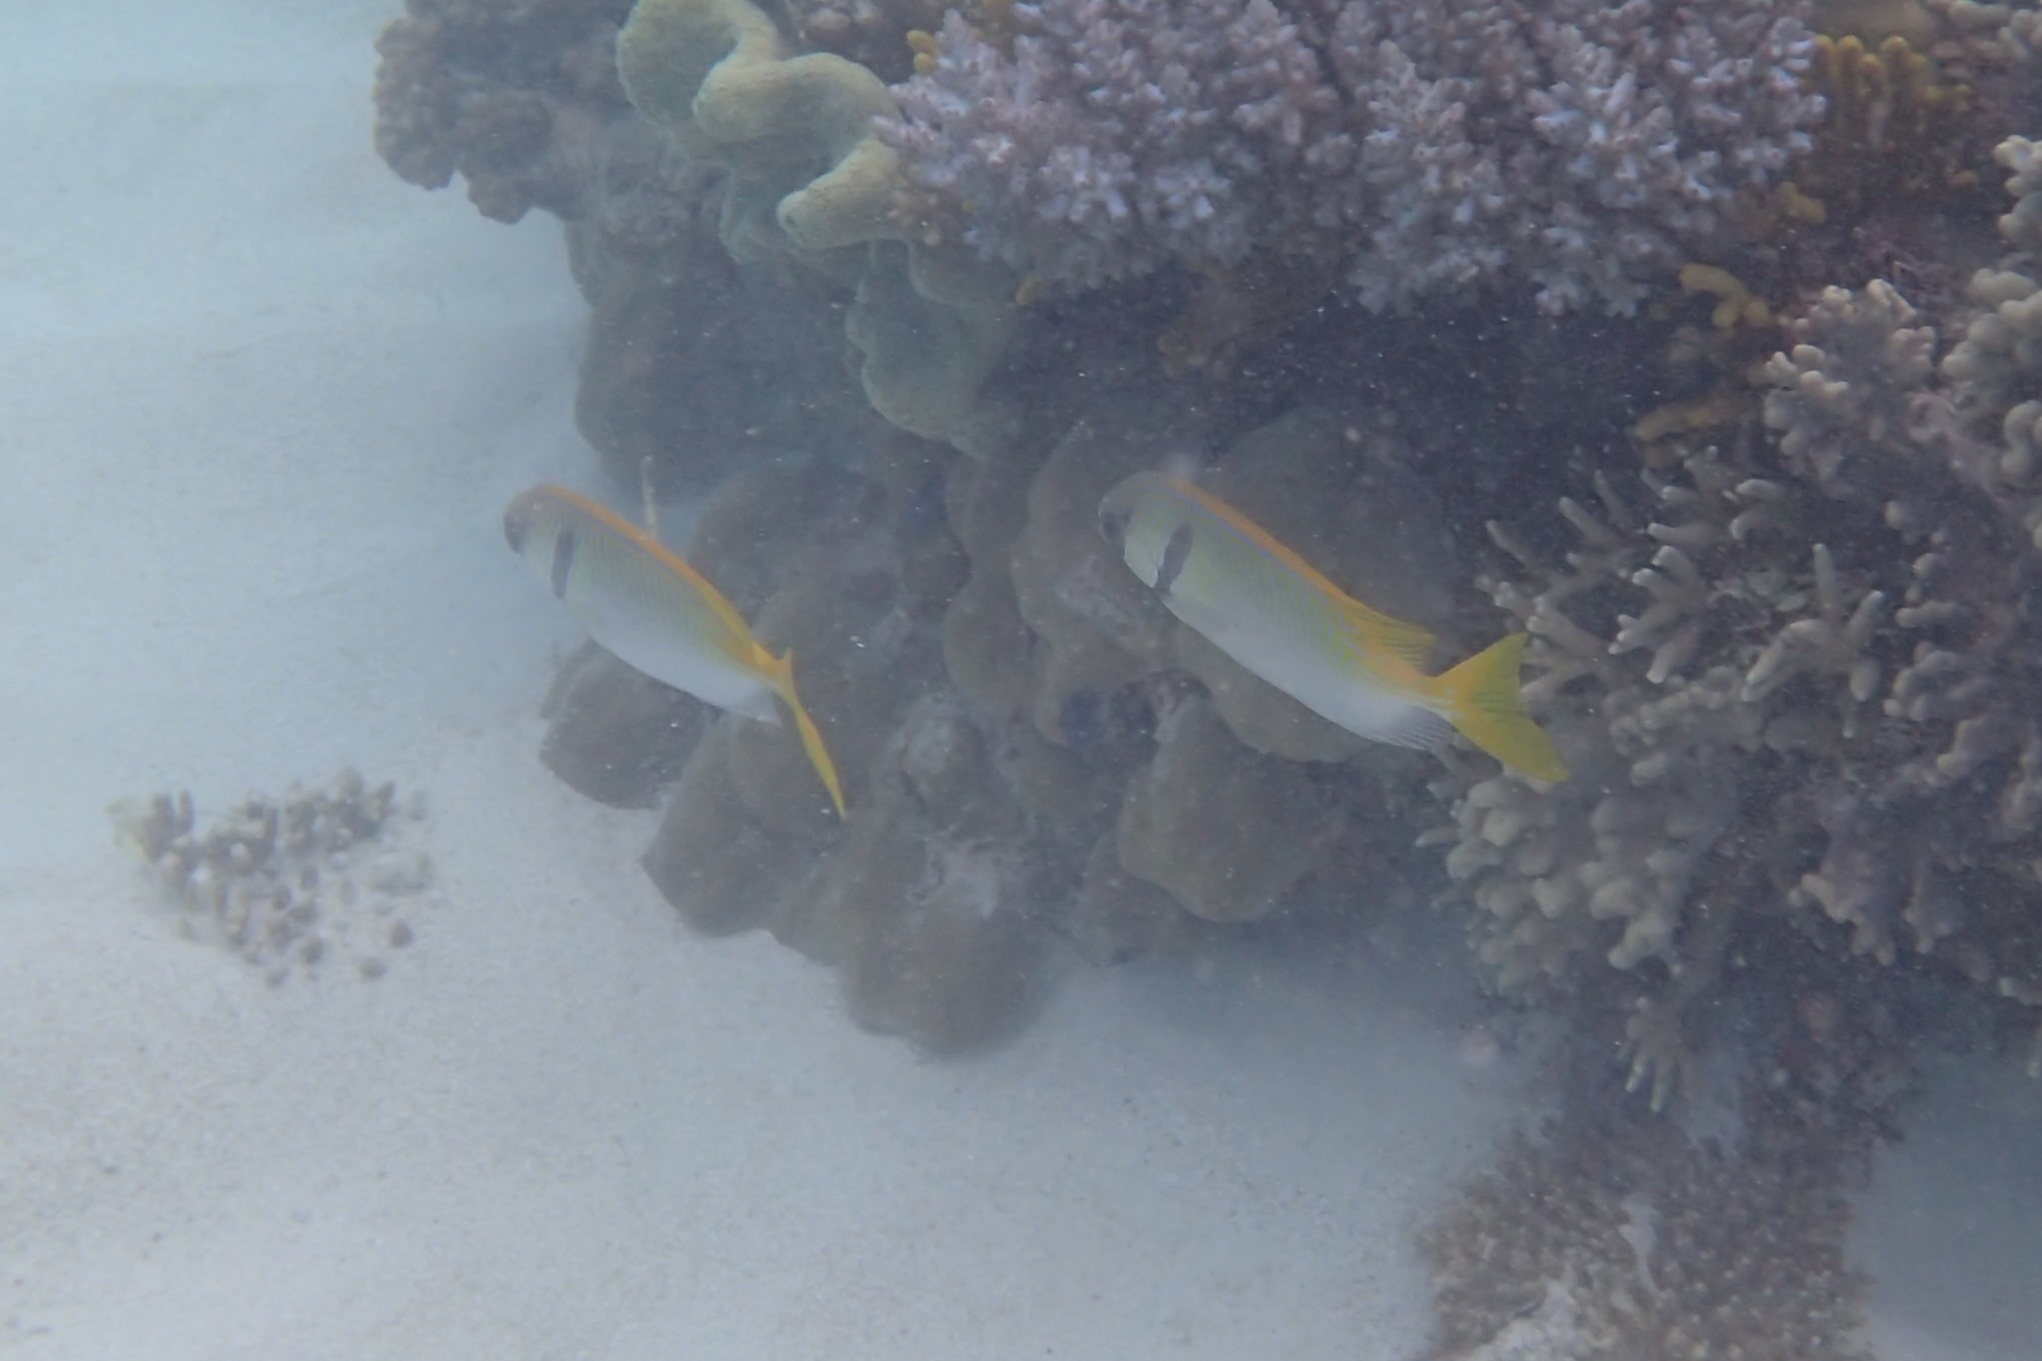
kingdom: Animalia
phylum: Chordata
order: Perciformes
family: Siganidae
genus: Siganus
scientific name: Siganus doliatus
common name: Barred spinefoot
